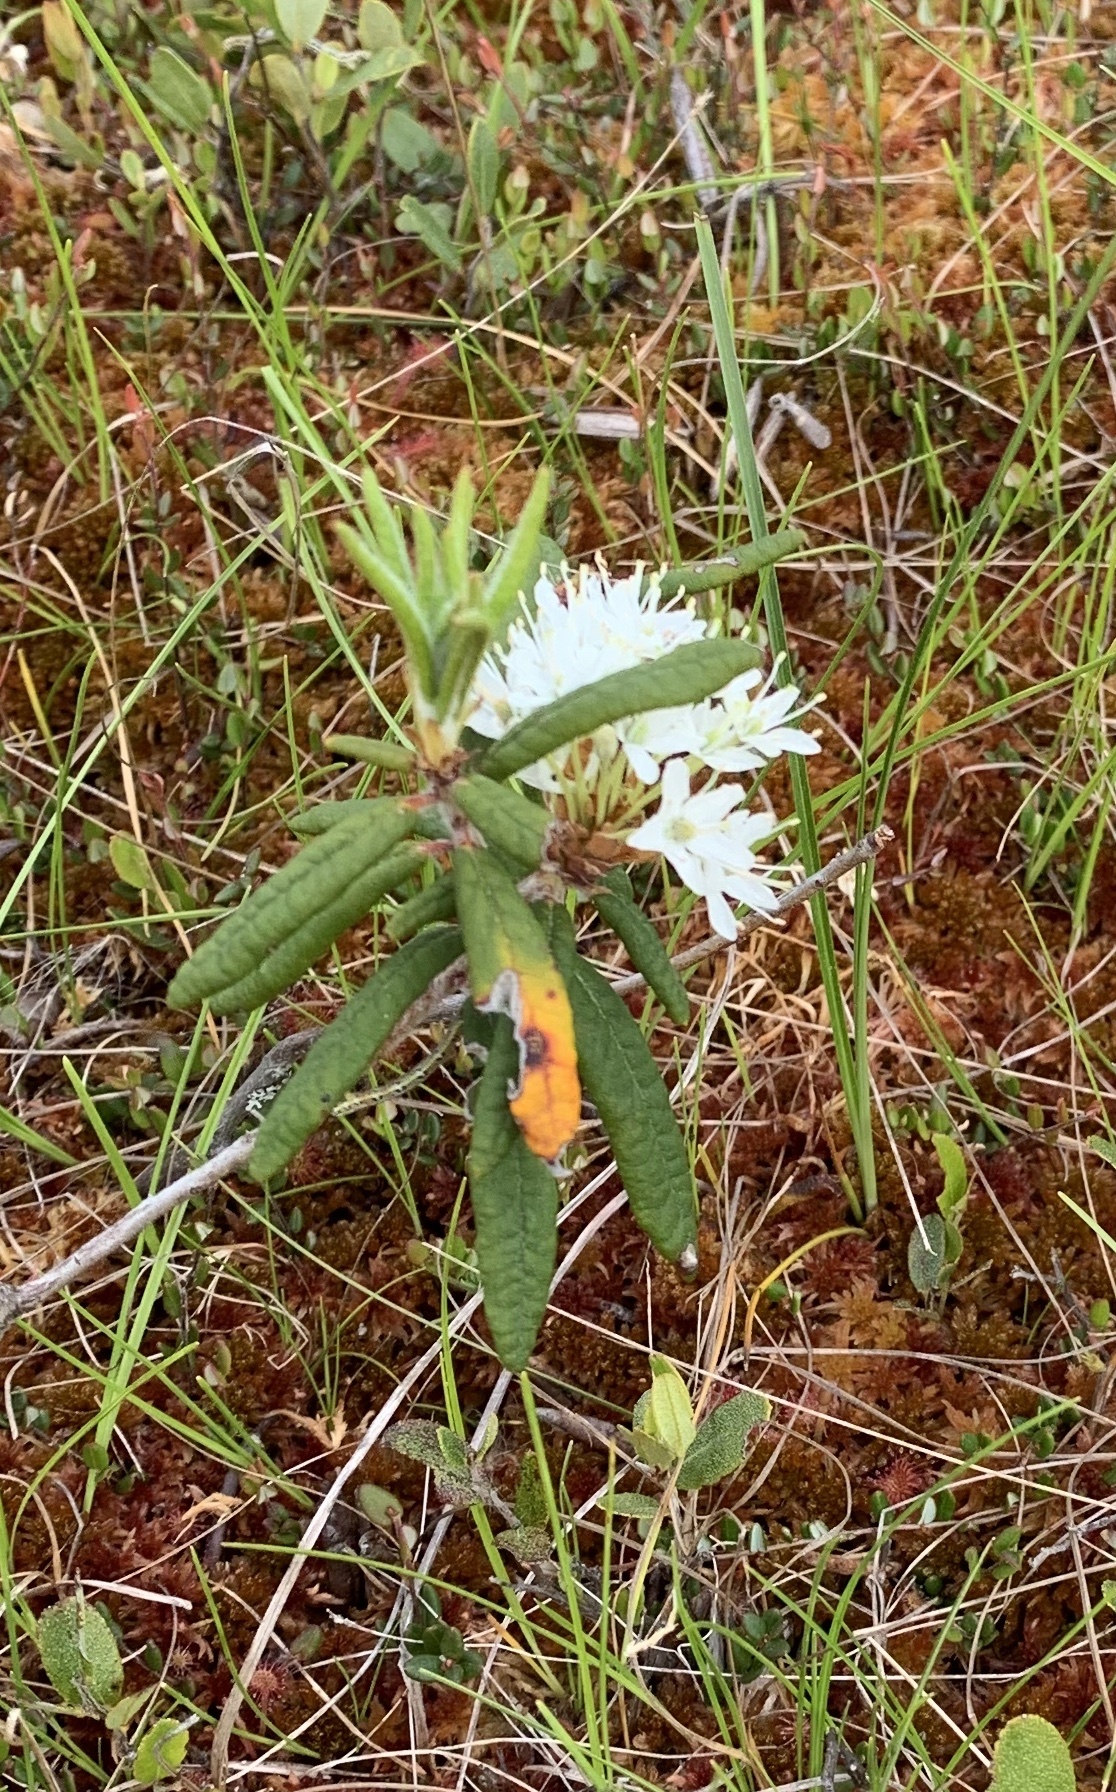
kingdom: Plantae
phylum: Tracheophyta
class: Magnoliopsida
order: Ericales
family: Ericaceae
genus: Rhododendron
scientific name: Rhododendron groenlandicum
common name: Bog labrador tea
